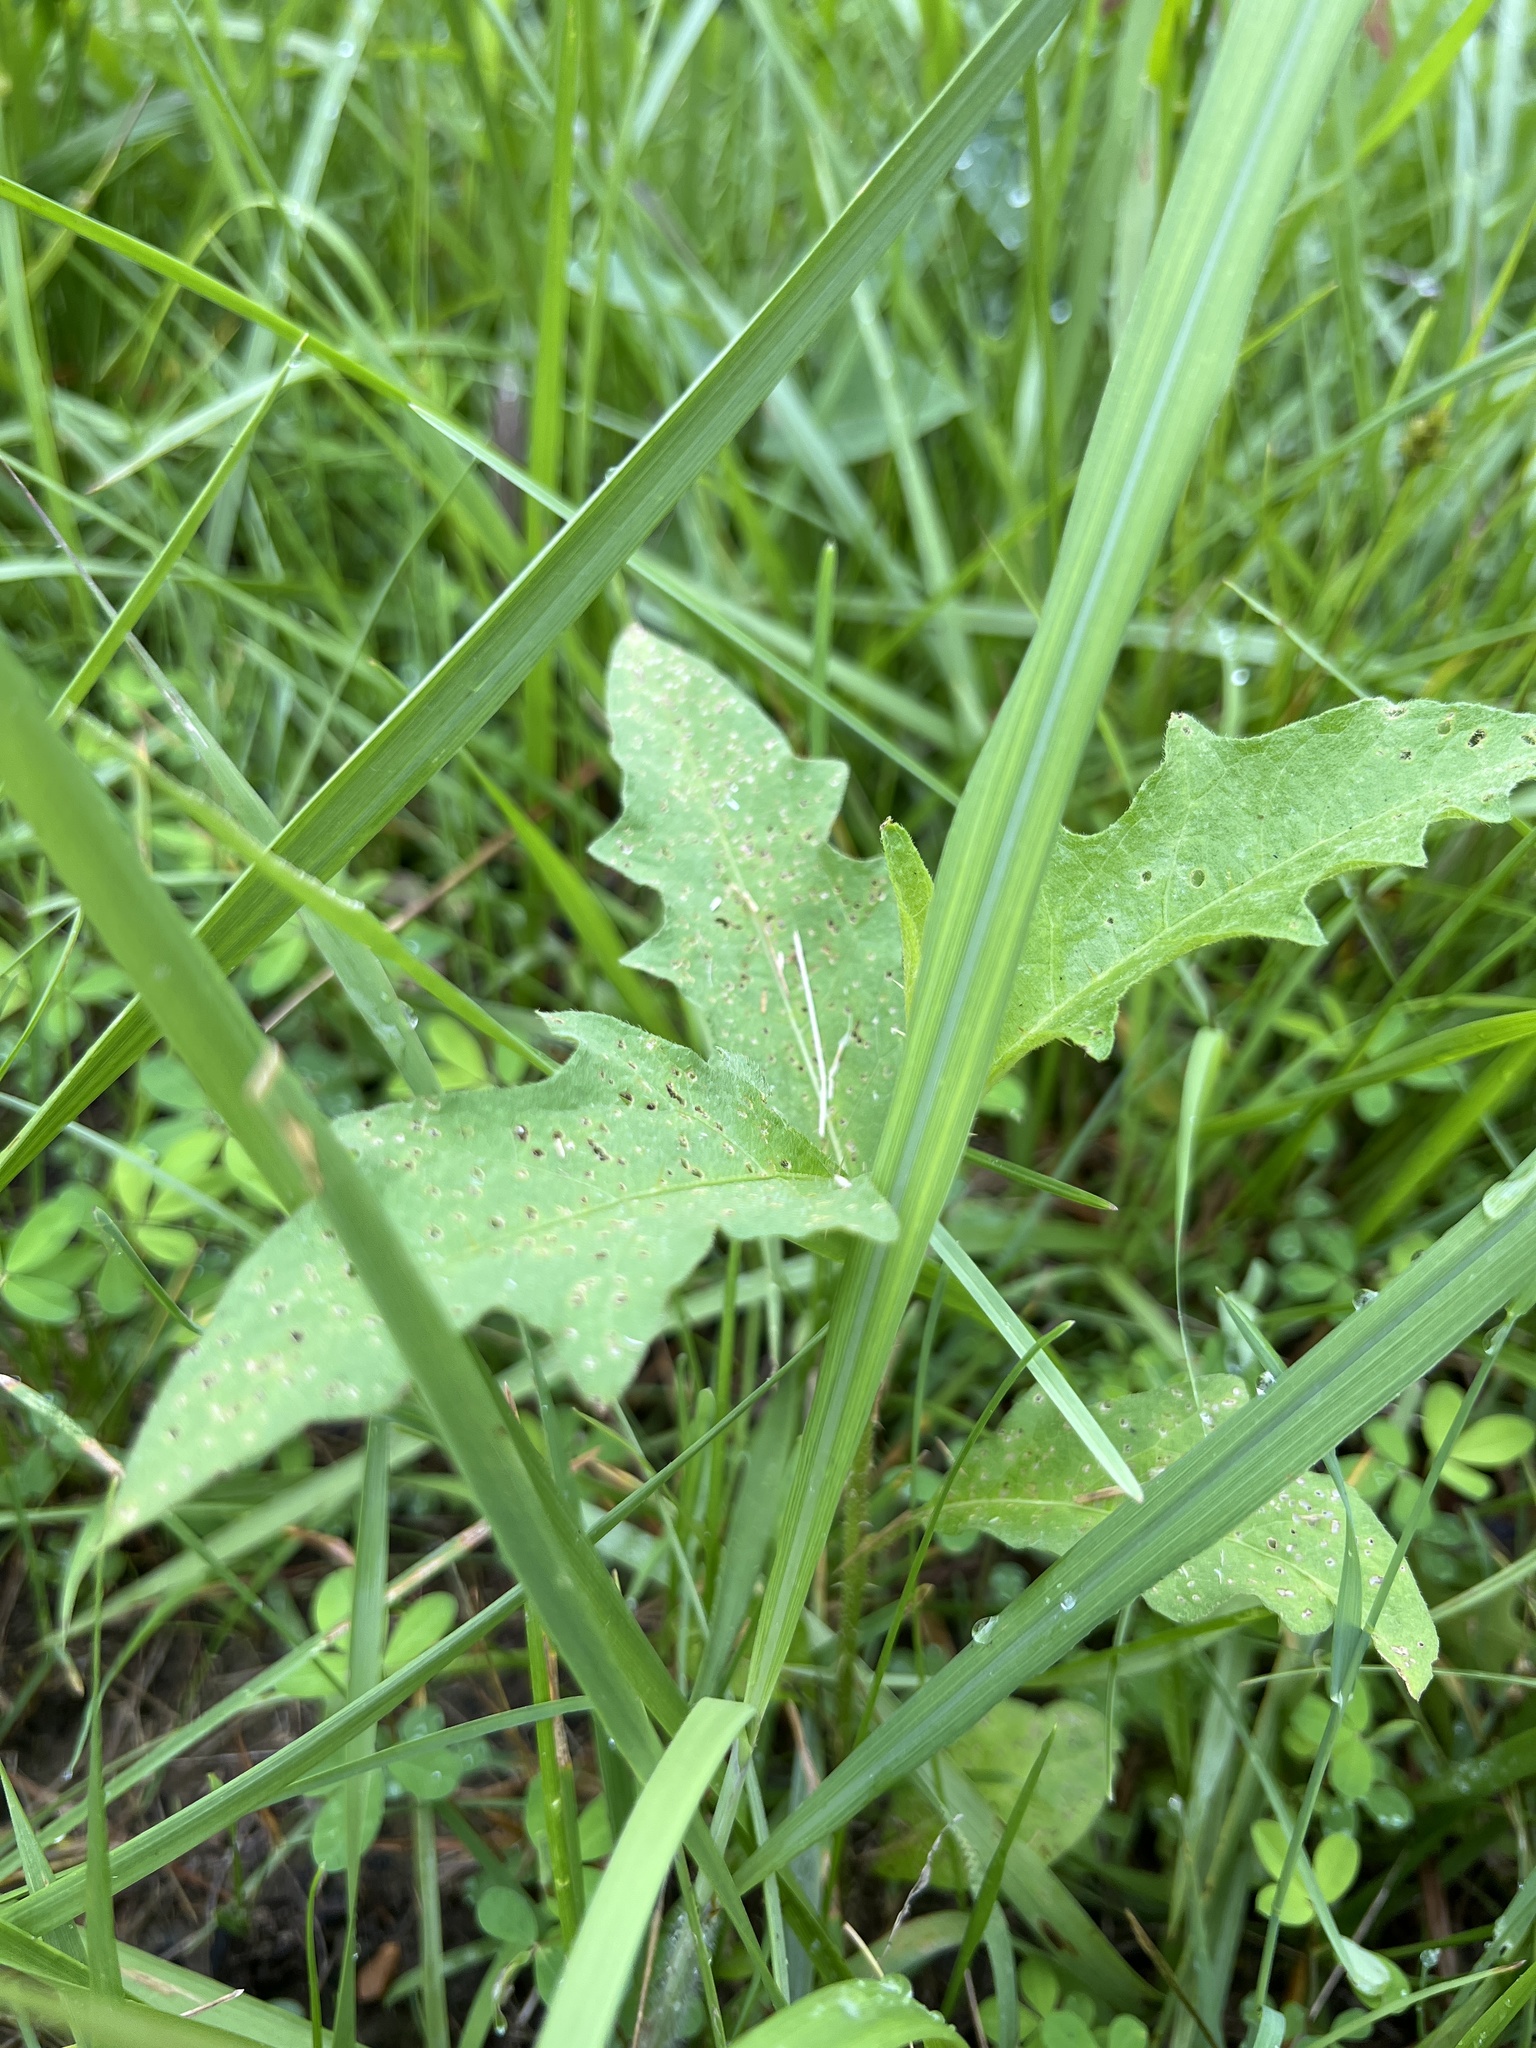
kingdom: Plantae
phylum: Tracheophyta
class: Magnoliopsida
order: Solanales
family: Solanaceae
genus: Solanum
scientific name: Solanum carolinense
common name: Horse-nettle
